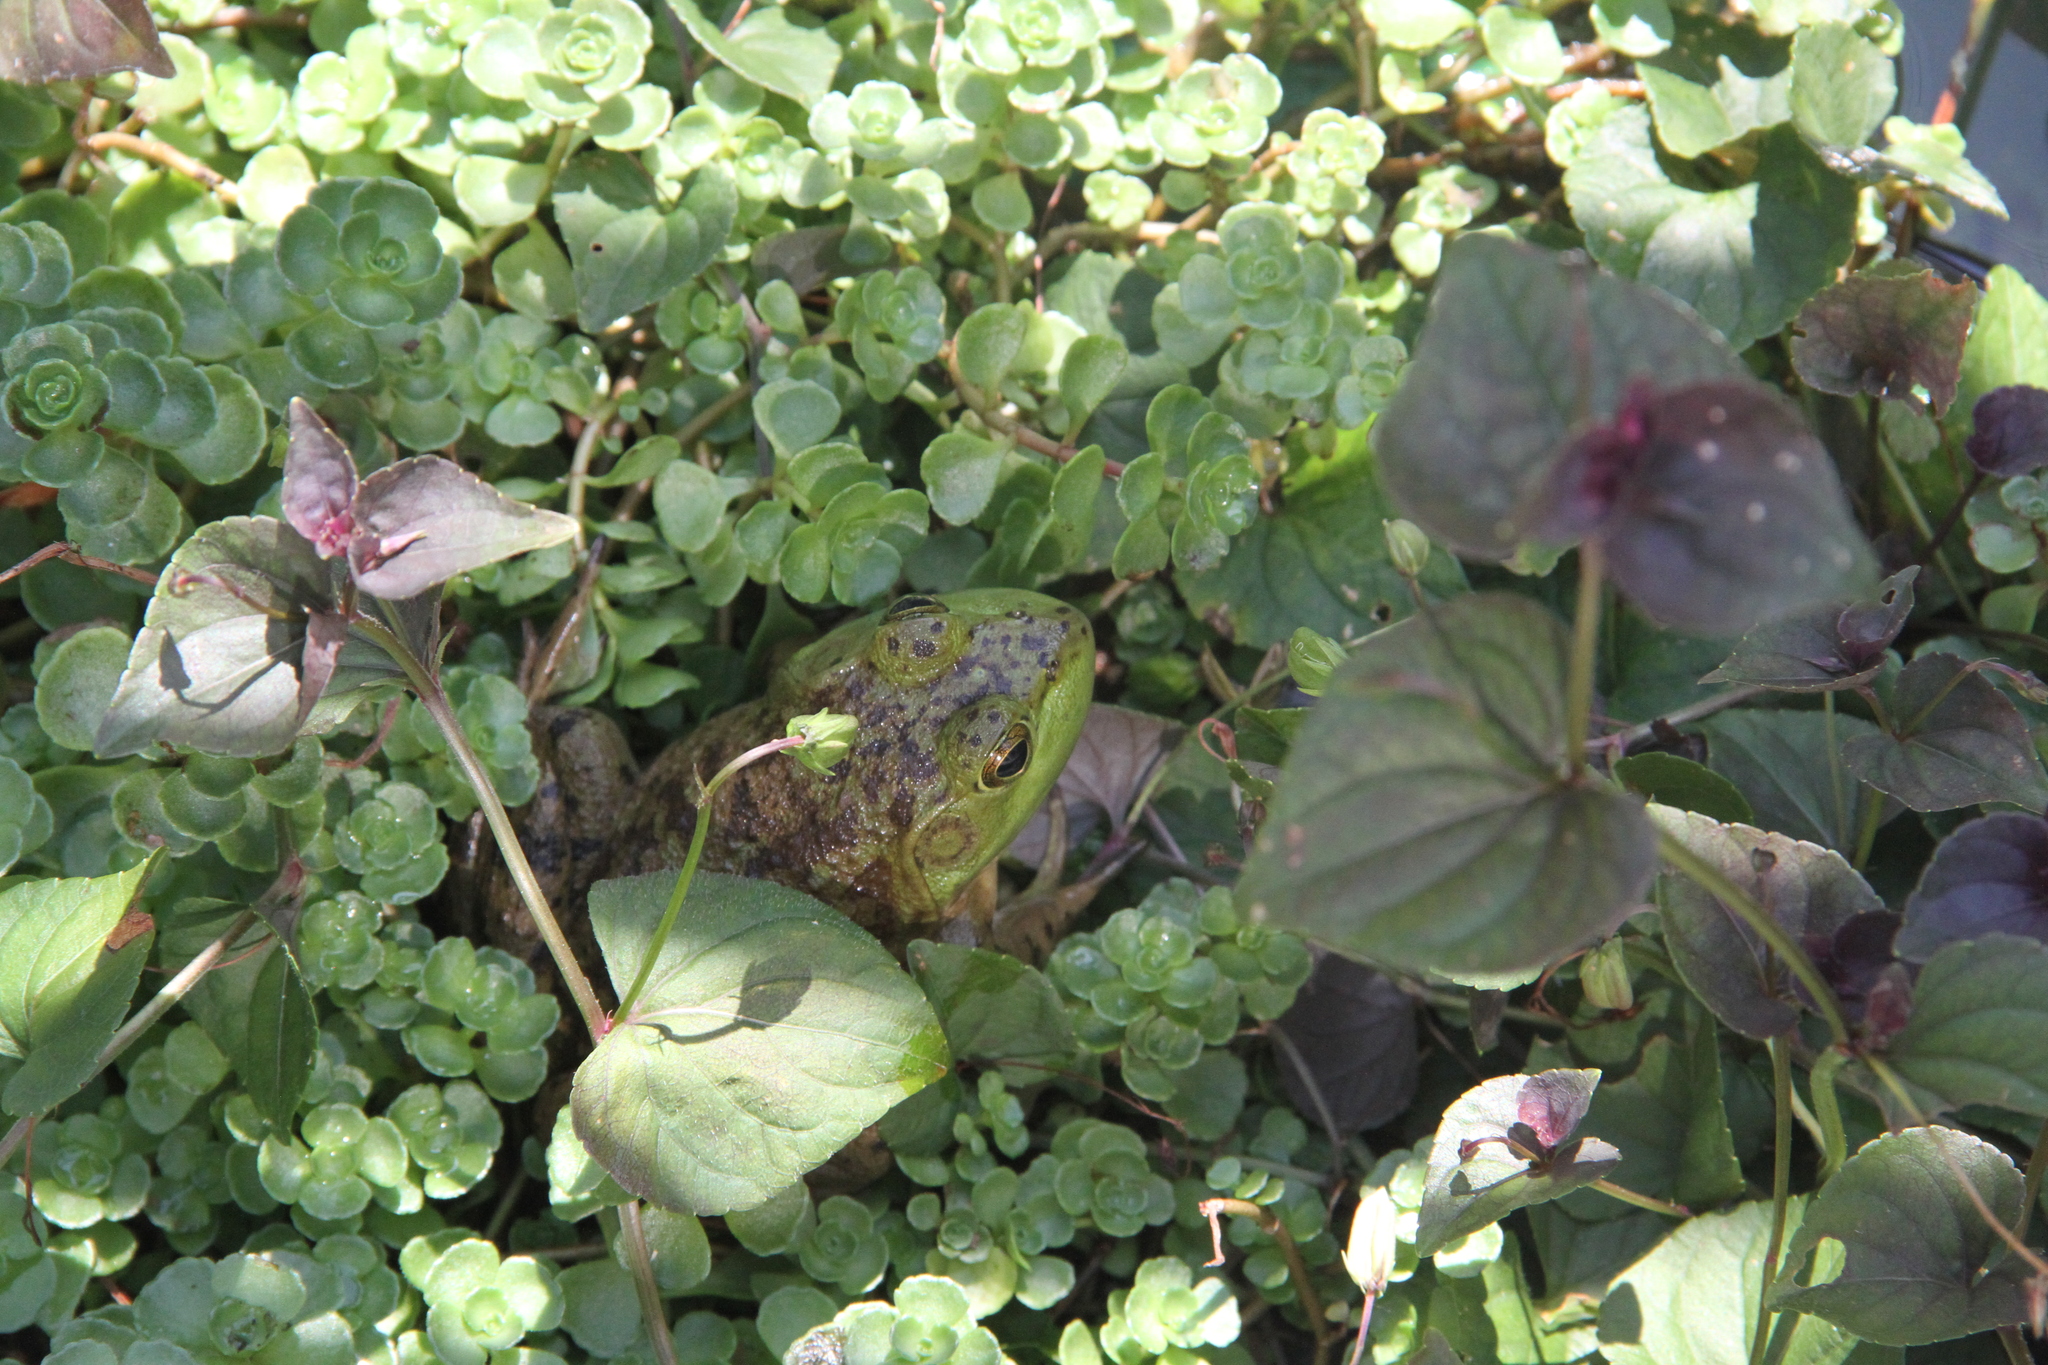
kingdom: Animalia
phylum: Chordata
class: Amphibia
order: Anura
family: Ranidae
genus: Lithobates
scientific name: Lithobates catesbeianus
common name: American bullfrog
